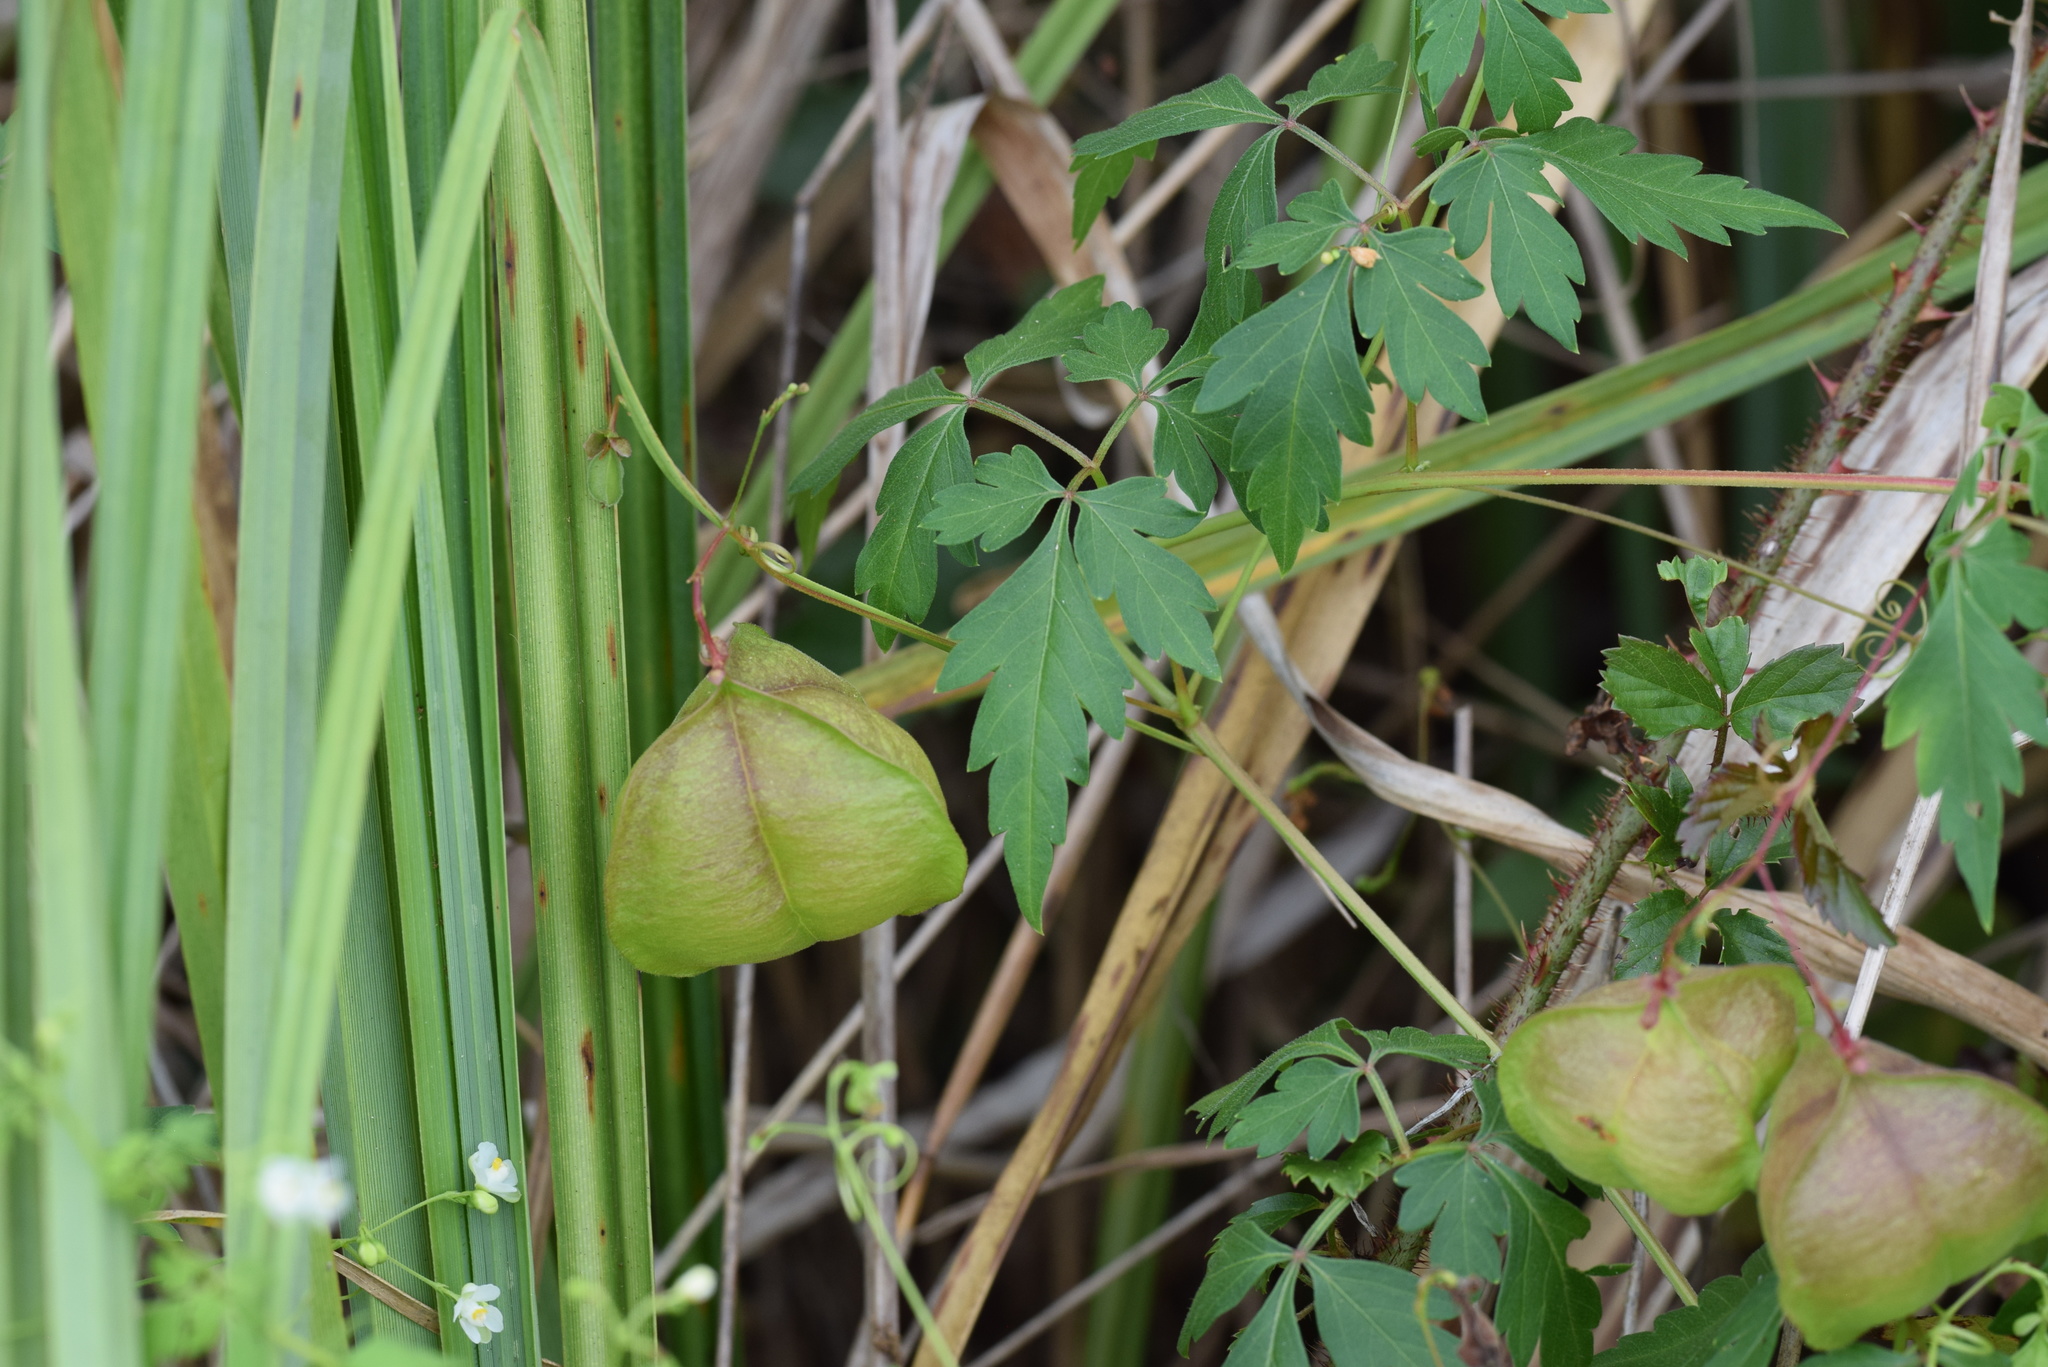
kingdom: Plantae
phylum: Tracheophyta
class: Magnoliopsida
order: Sapindales
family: Sapindaceae
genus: Cardiospermum
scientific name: Cardiospermum halicacabum
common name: Balloon vine
